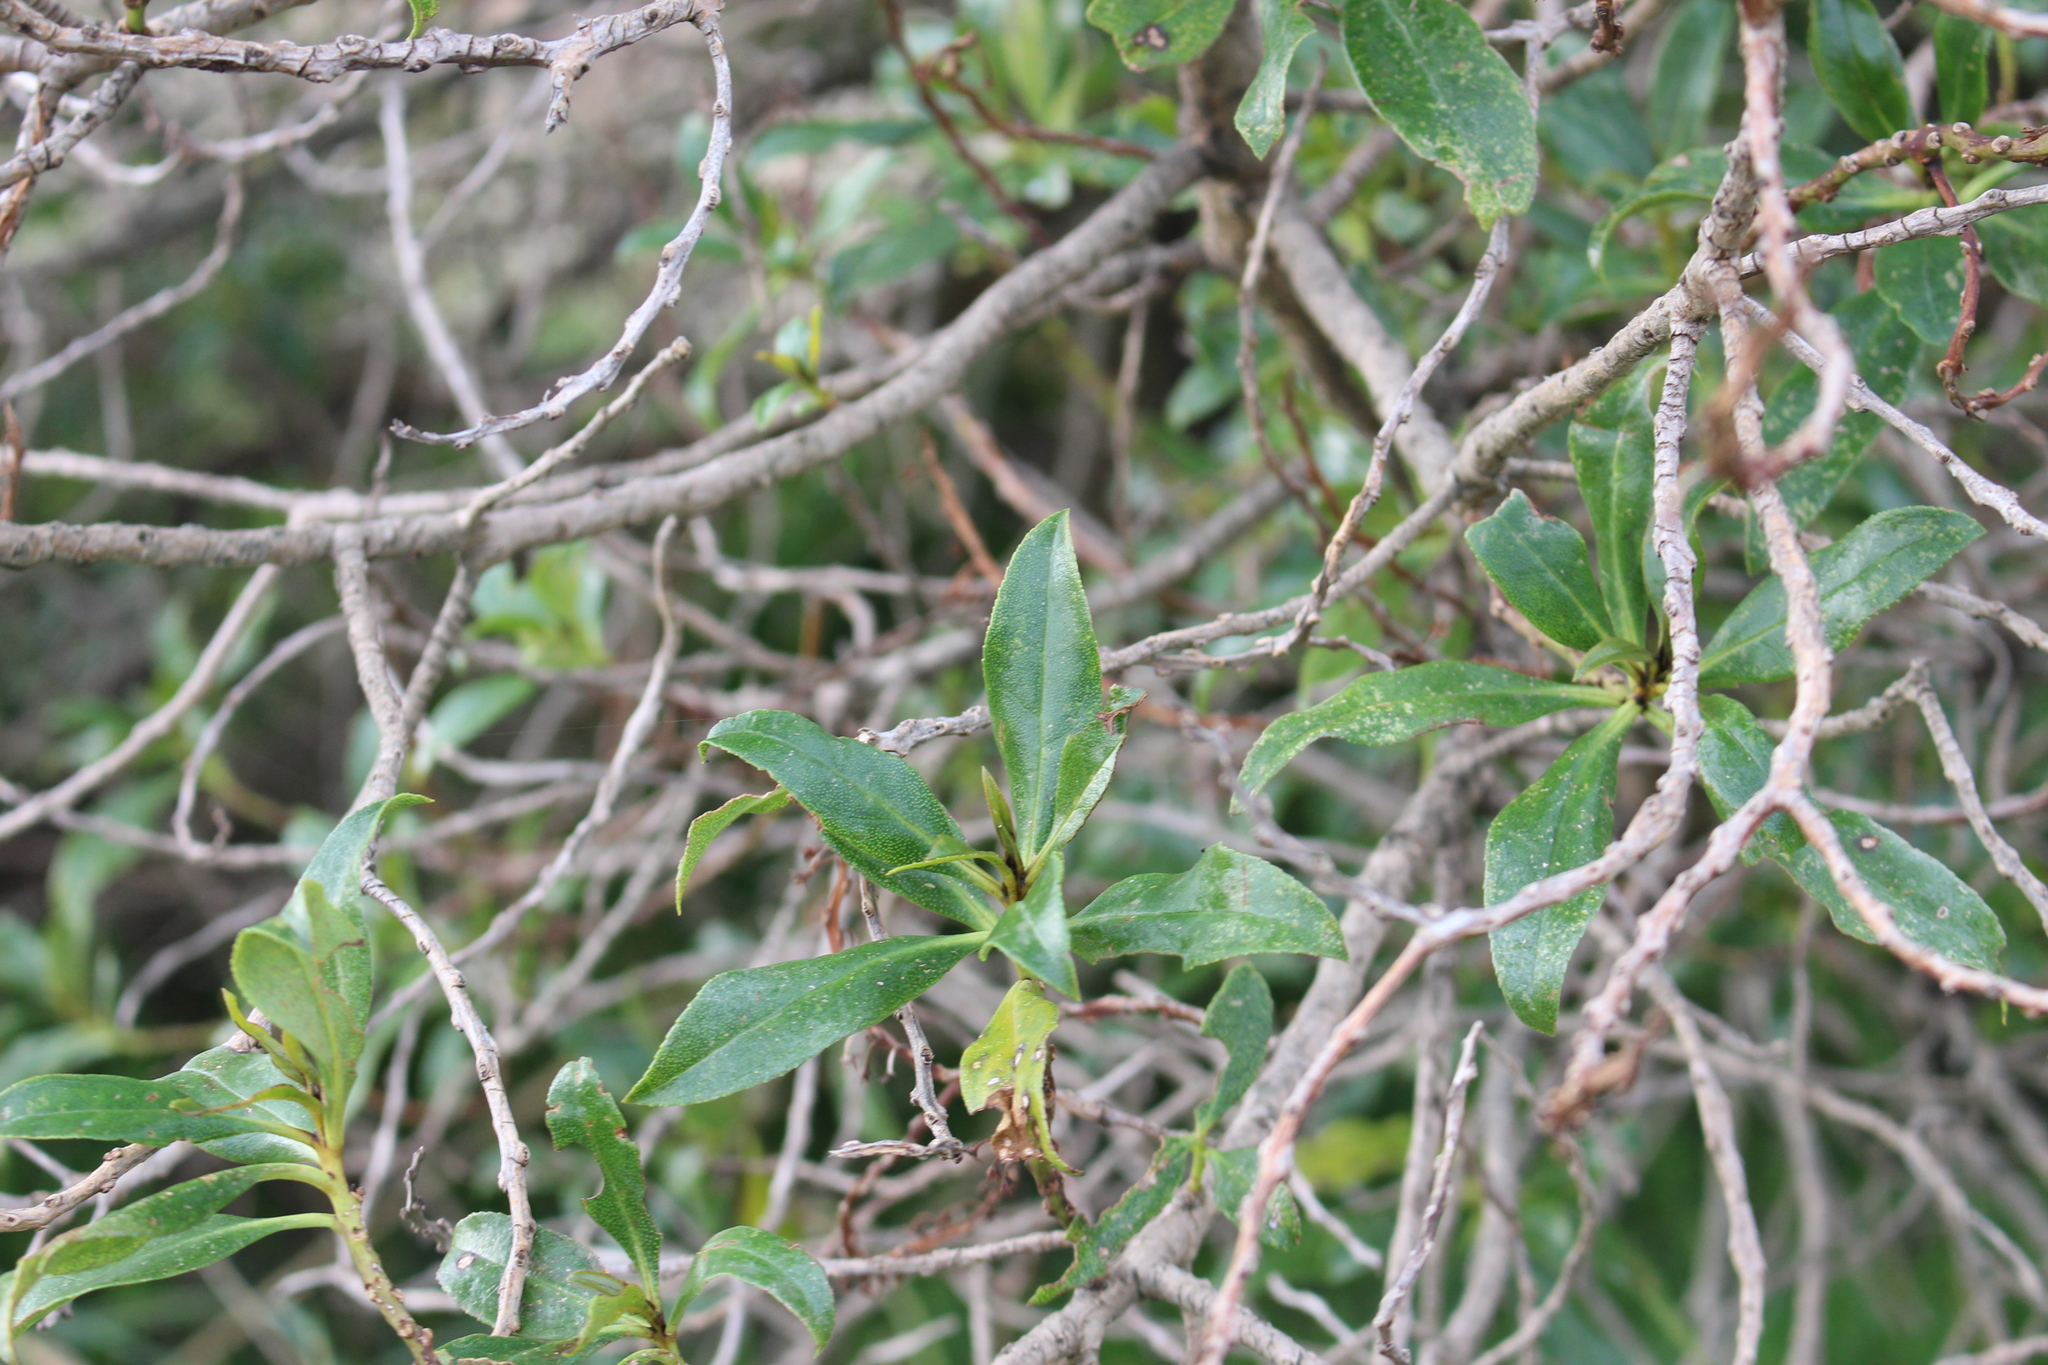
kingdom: Plantae
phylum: Tracheophyta
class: Magnoliopsida
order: Lamiales
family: Scrophulariaceae
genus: Myoporum
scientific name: Myoporum laetum
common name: Ngaio tree
